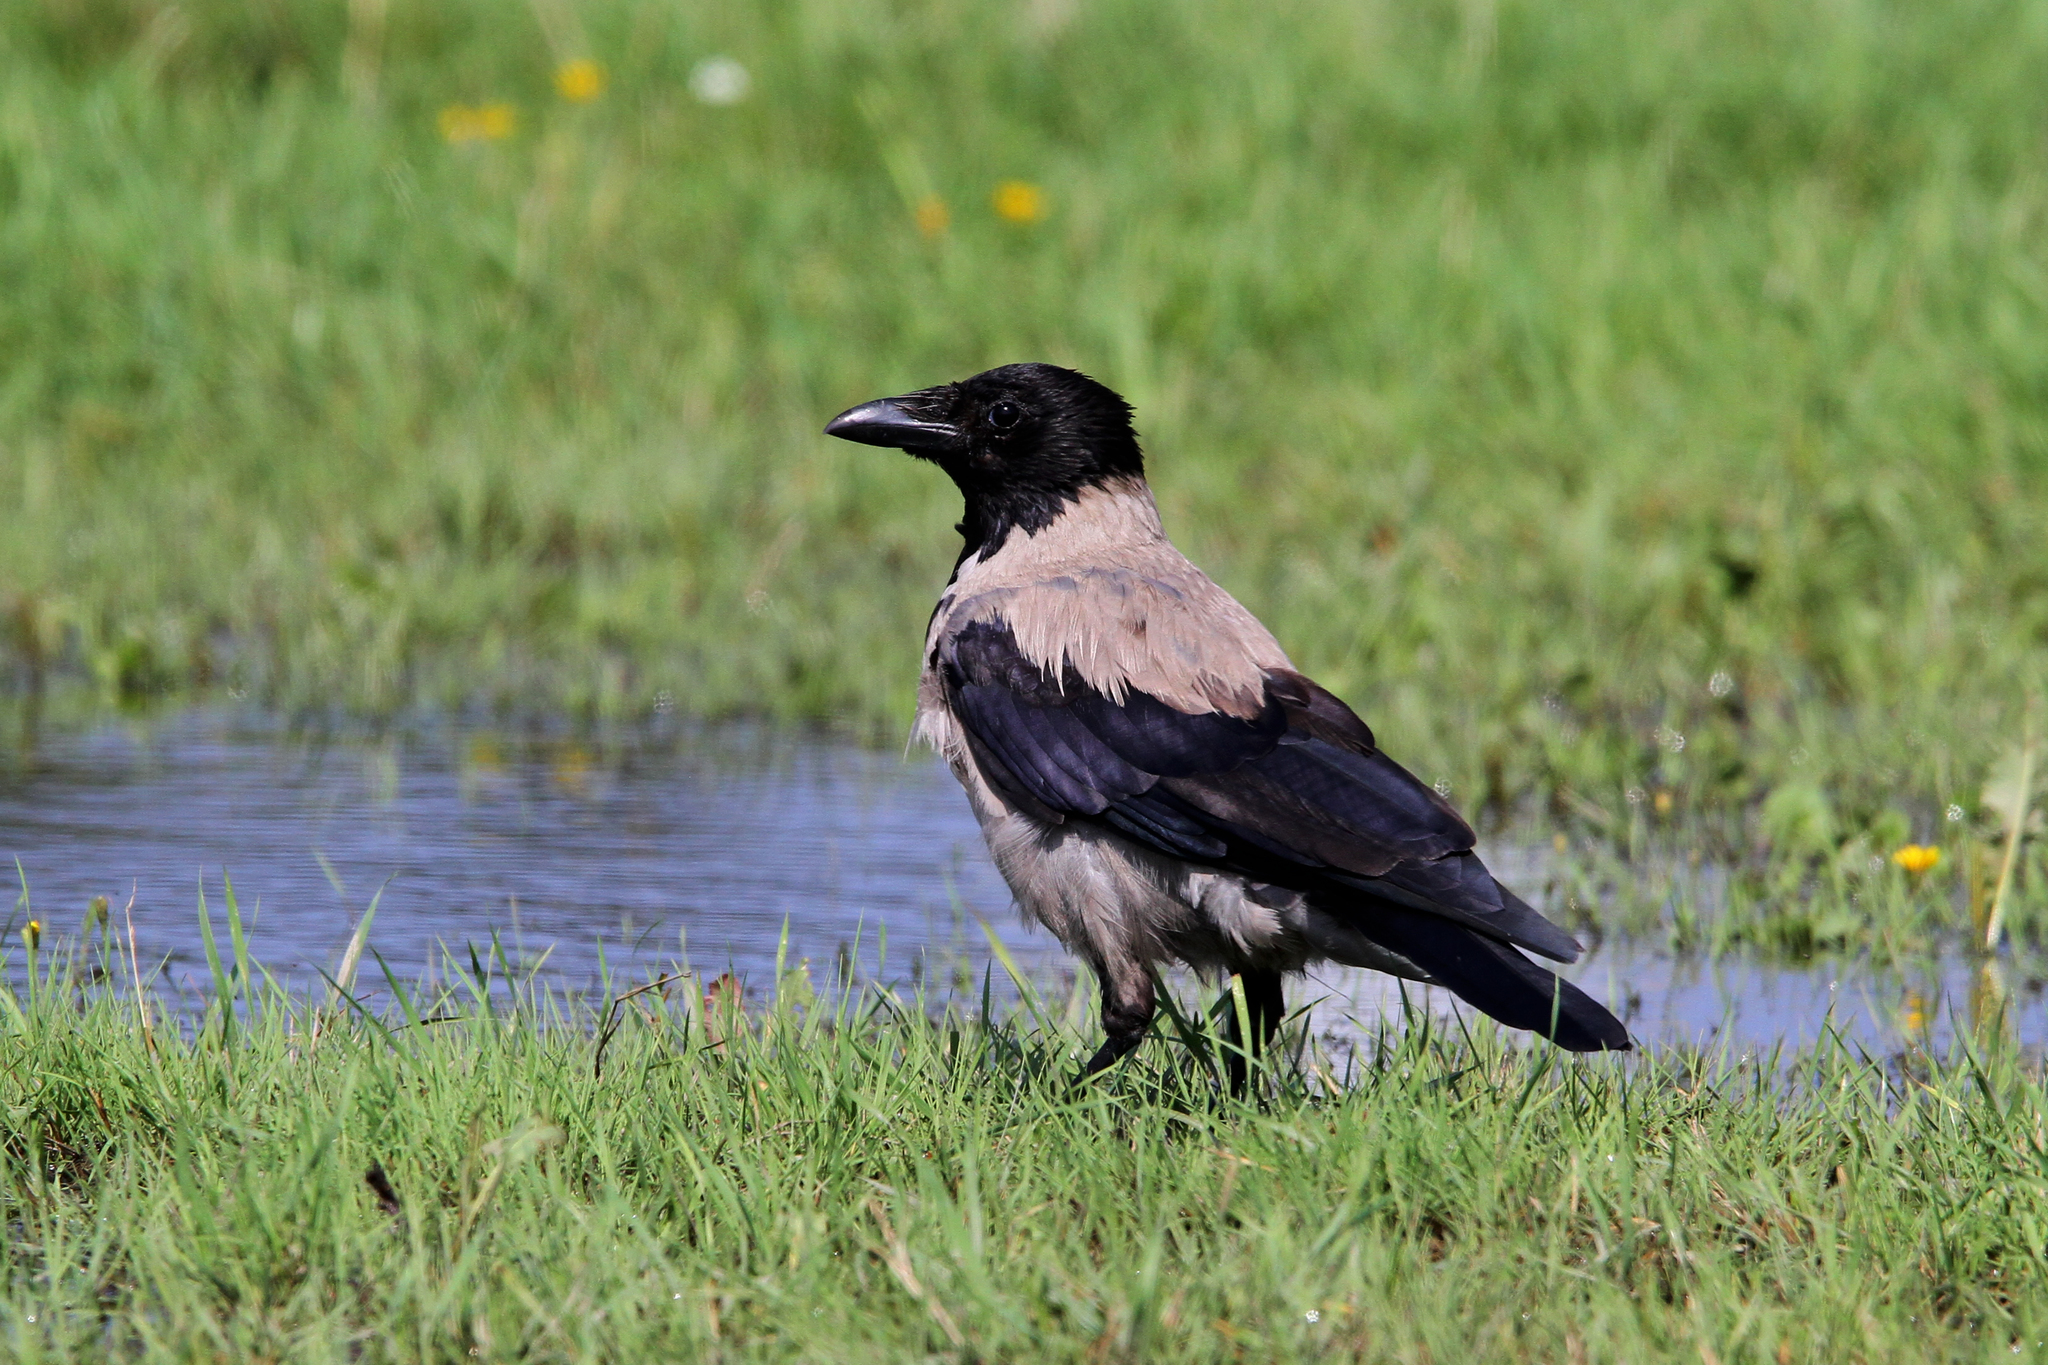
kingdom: Animalia
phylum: Chordata
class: Aves
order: Passeriformes
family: Corvidae
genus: Corvus
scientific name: Corvus cornix
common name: Hooded crow
